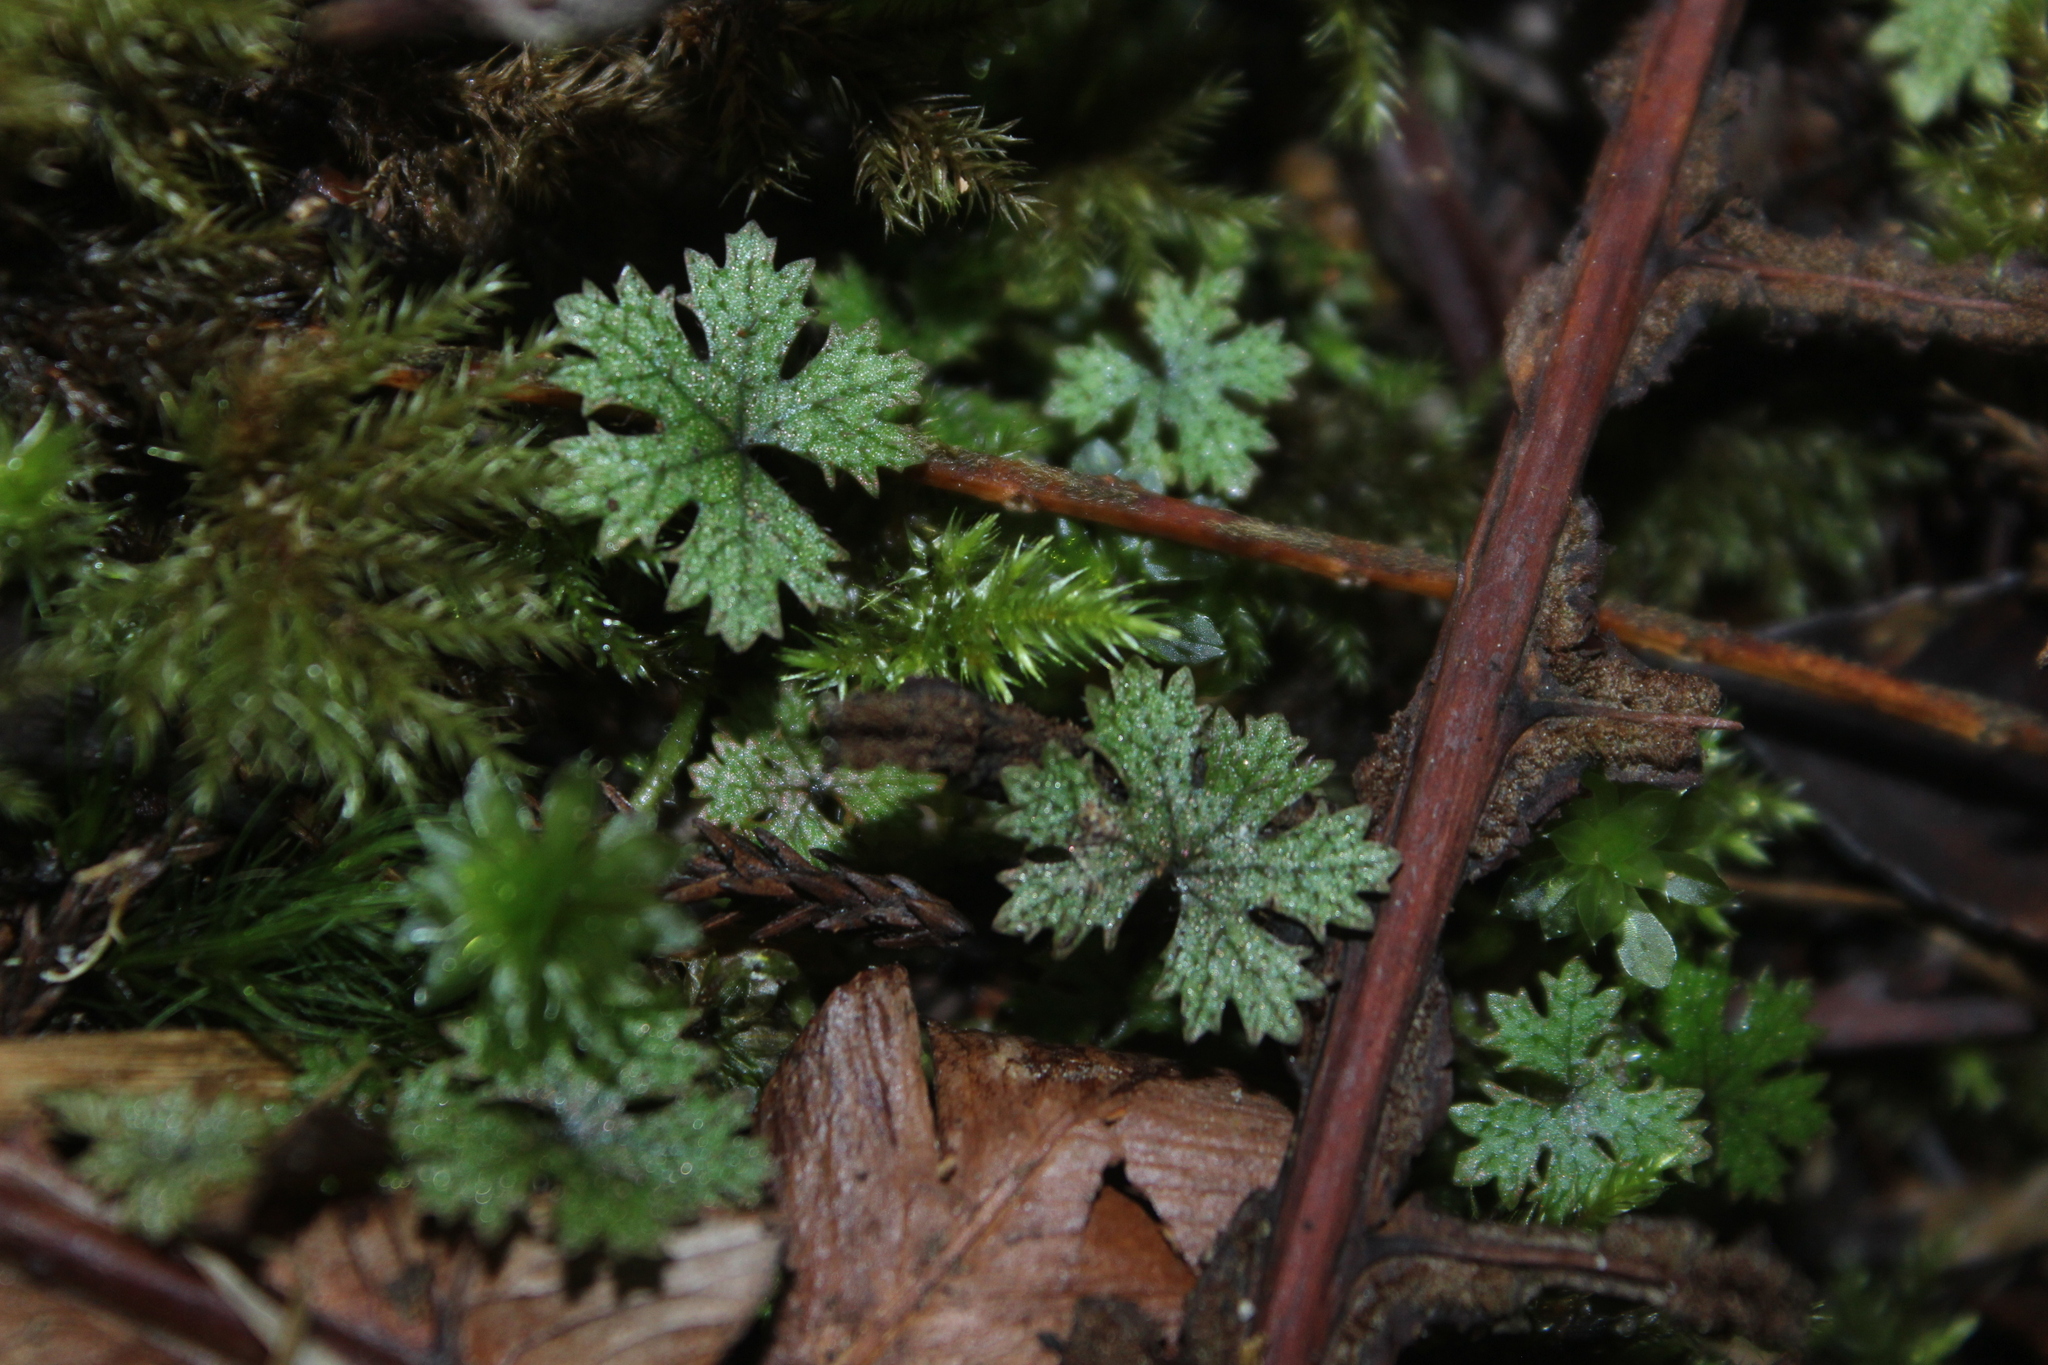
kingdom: Plantae
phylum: Tracheophyta
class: Magnoliopsida
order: Apiales
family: Araliaceae
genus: Hydrocotyle
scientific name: Hydrocotyle dissecta
